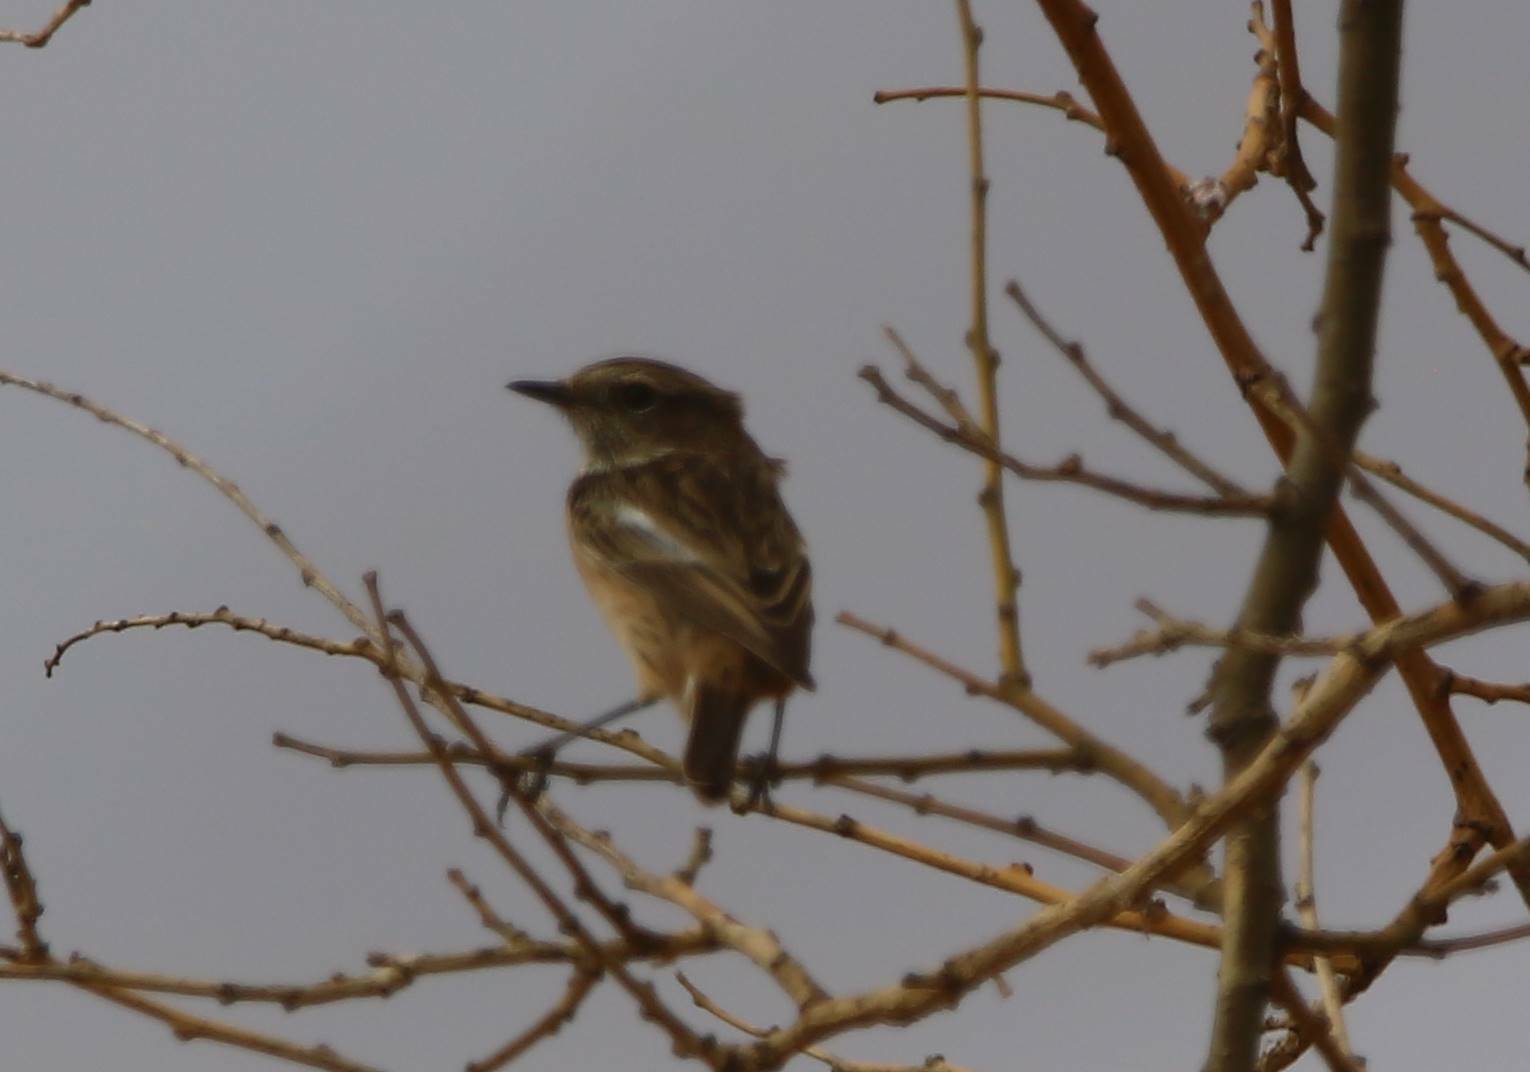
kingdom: Animalia
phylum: Chordata
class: Aves
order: Passeriformes
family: Muscicapidae
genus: Saxicola
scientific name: Saxicola rubicola
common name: European stonechat
